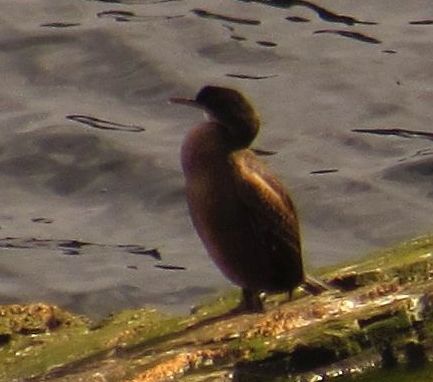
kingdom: Animalia
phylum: Chordata
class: Aves
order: Suliformes
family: Phalacrocoracidae
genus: Phalacrocorax
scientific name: Phalacrocorax aristotelis
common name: European shag
